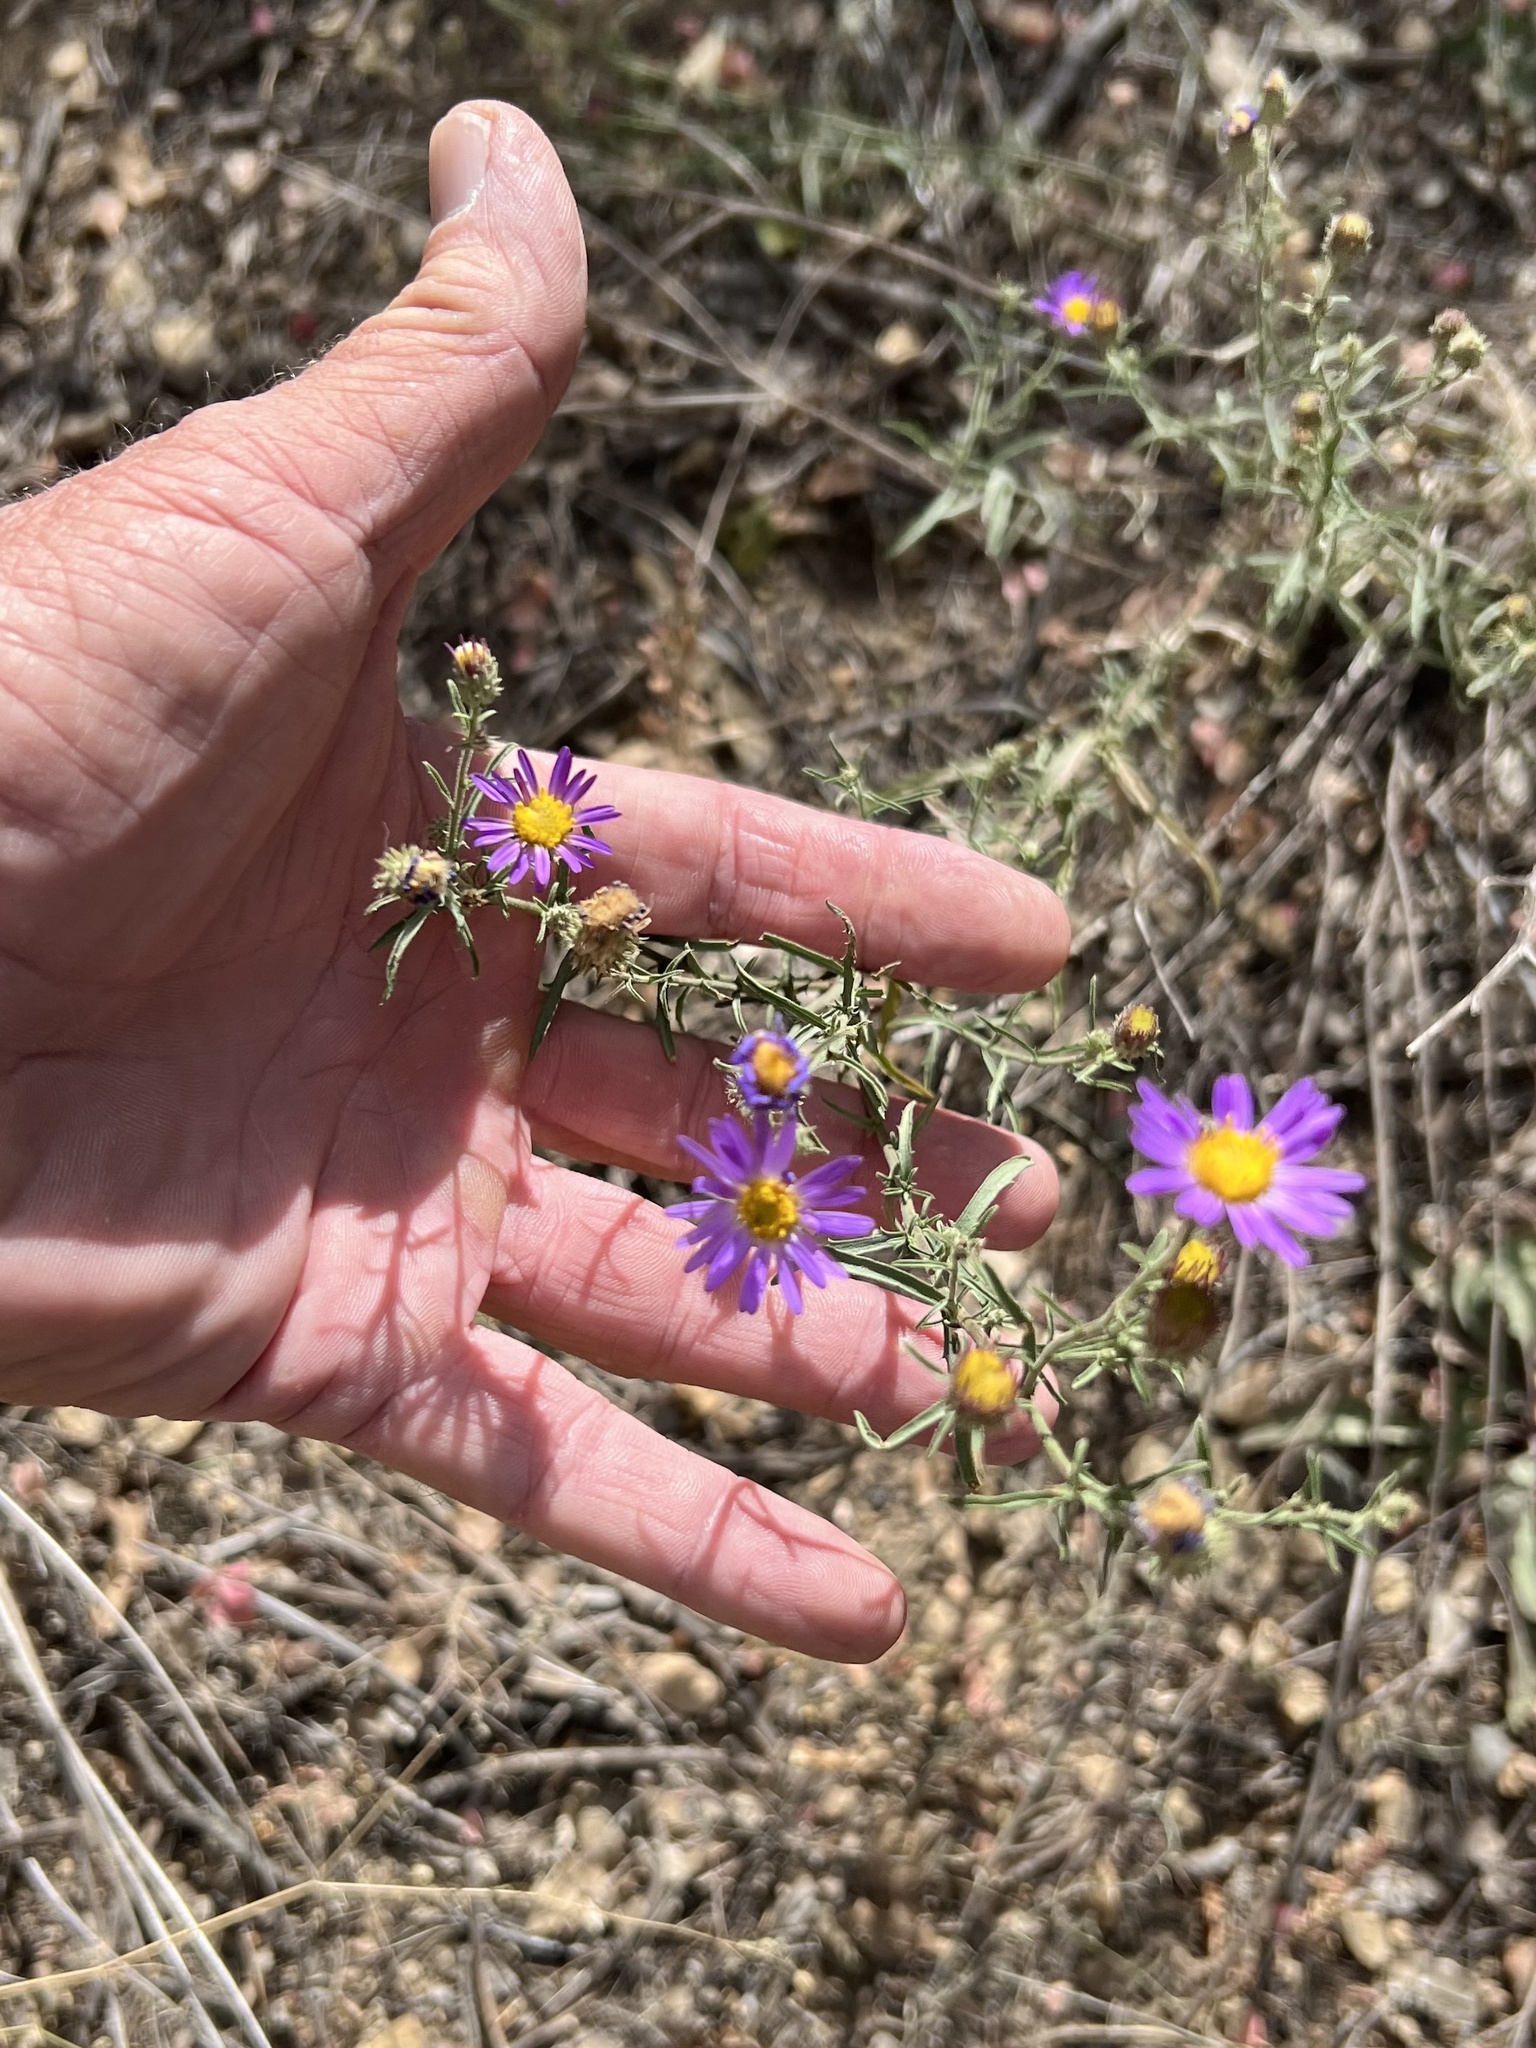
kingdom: Plantae
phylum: Tracheophyta
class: Magnoliopsida
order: Asterales
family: Asteraceae
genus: Dieteria
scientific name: Dieteria canescens
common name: Hoary-aster
